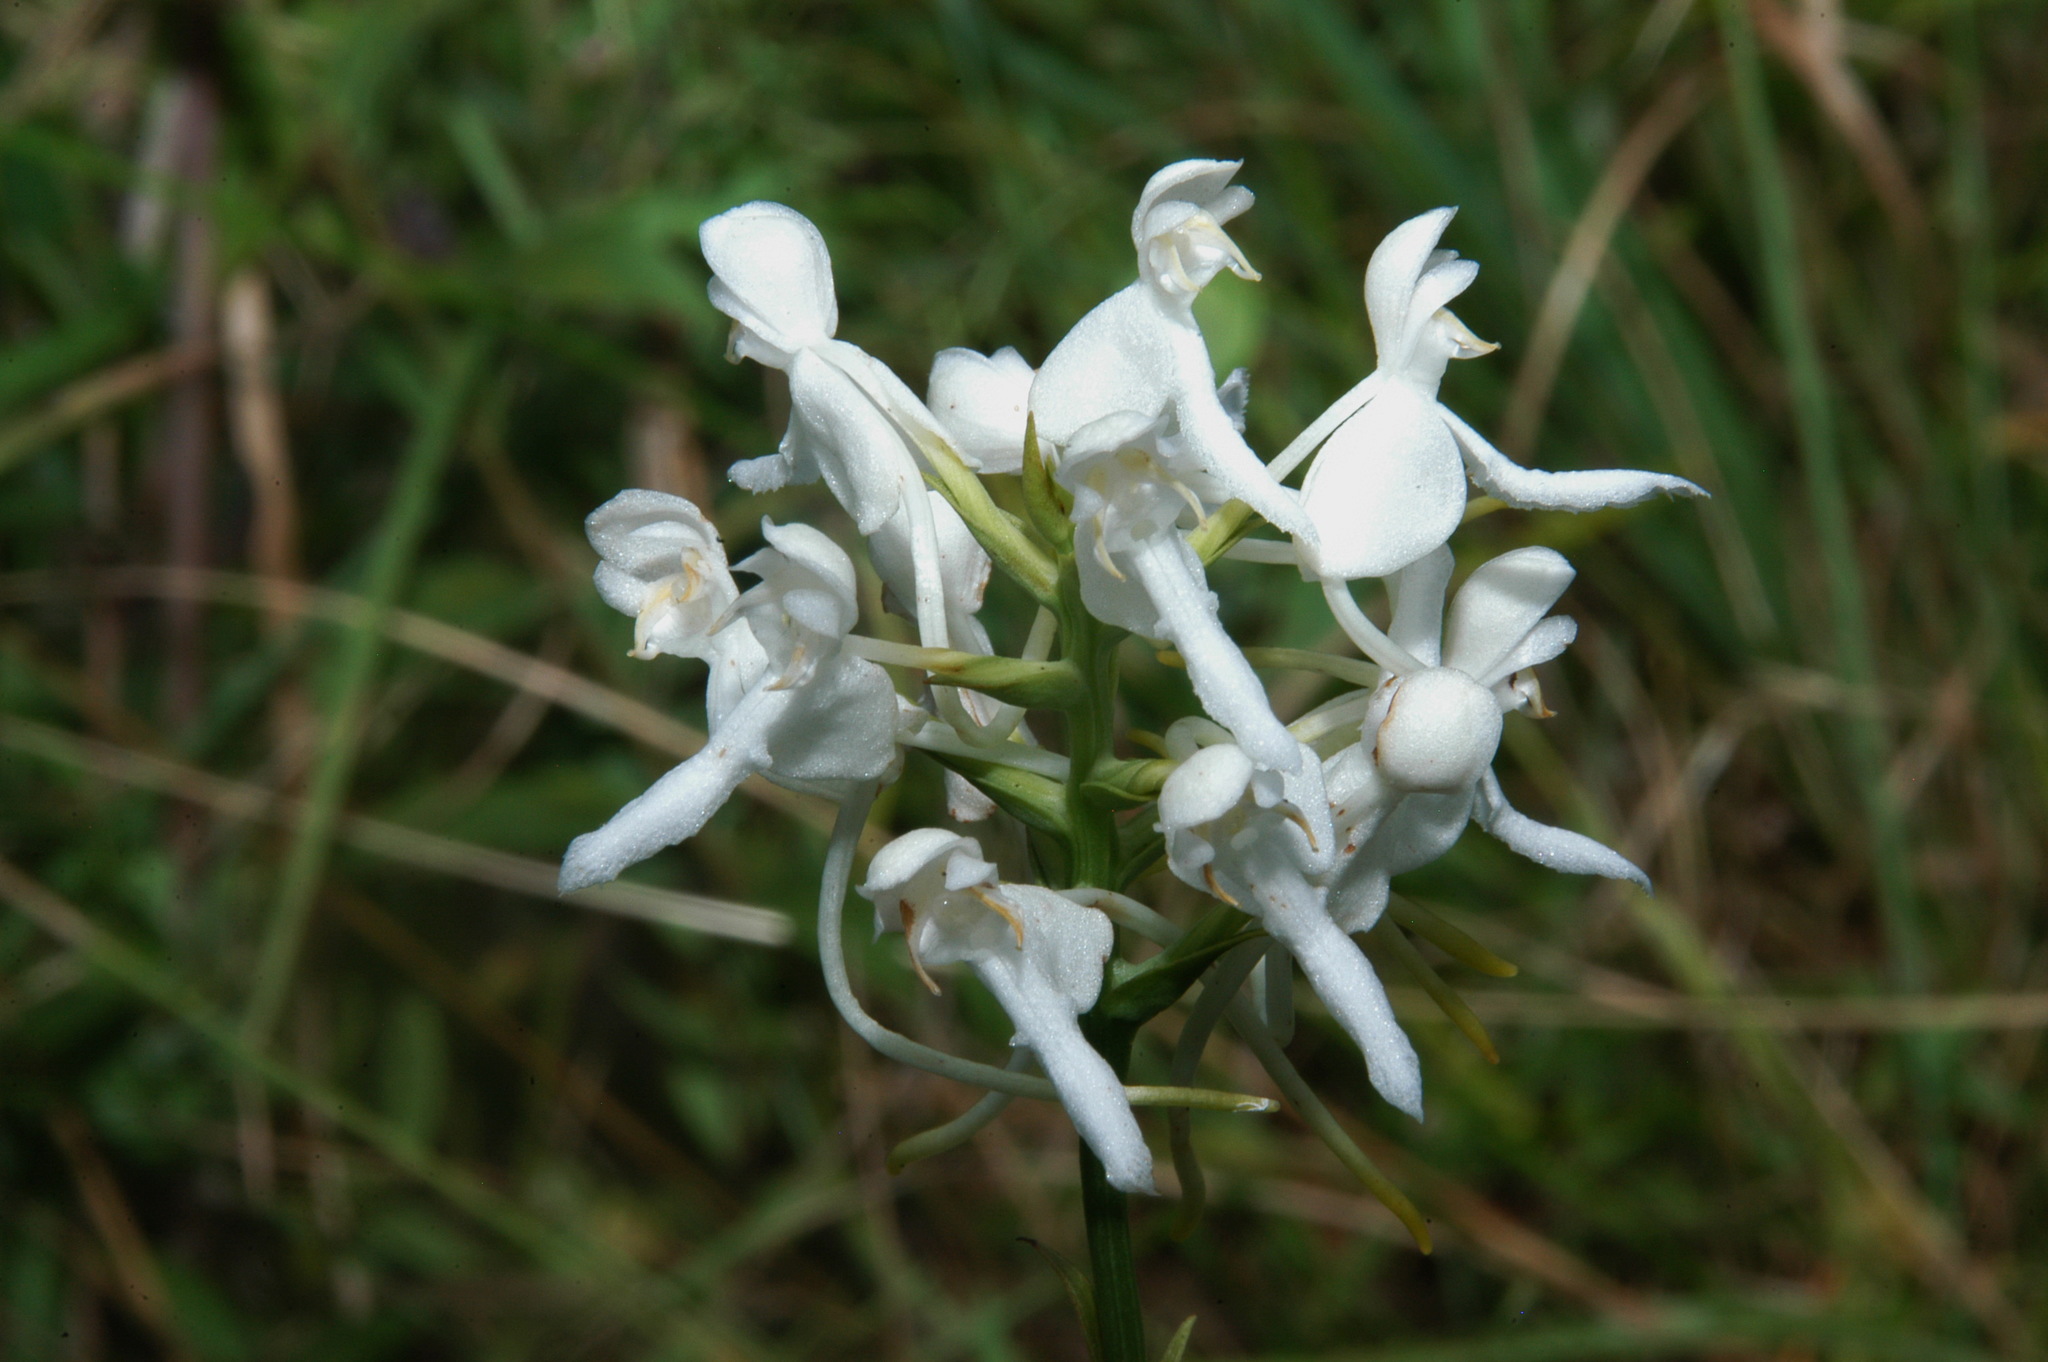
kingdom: Plantae
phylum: Tracheophyta
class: Liliopsida
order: Asparagales
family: Orchidaceae
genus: Platanthera
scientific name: Platanthera integrilabia
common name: White fringeless orchid
